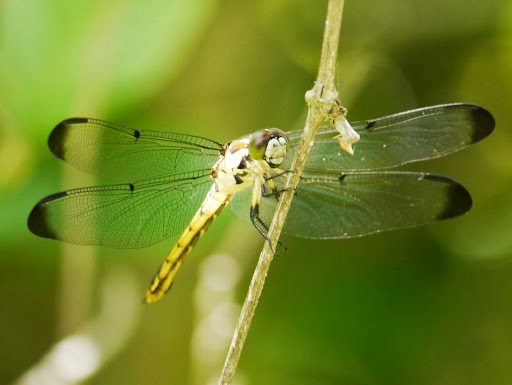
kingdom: Animalia
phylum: Arthropoda
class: Insecta
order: Odonata
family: Libellulidae
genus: Libellula
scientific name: Libellula vibrans
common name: Great blue skimmer
